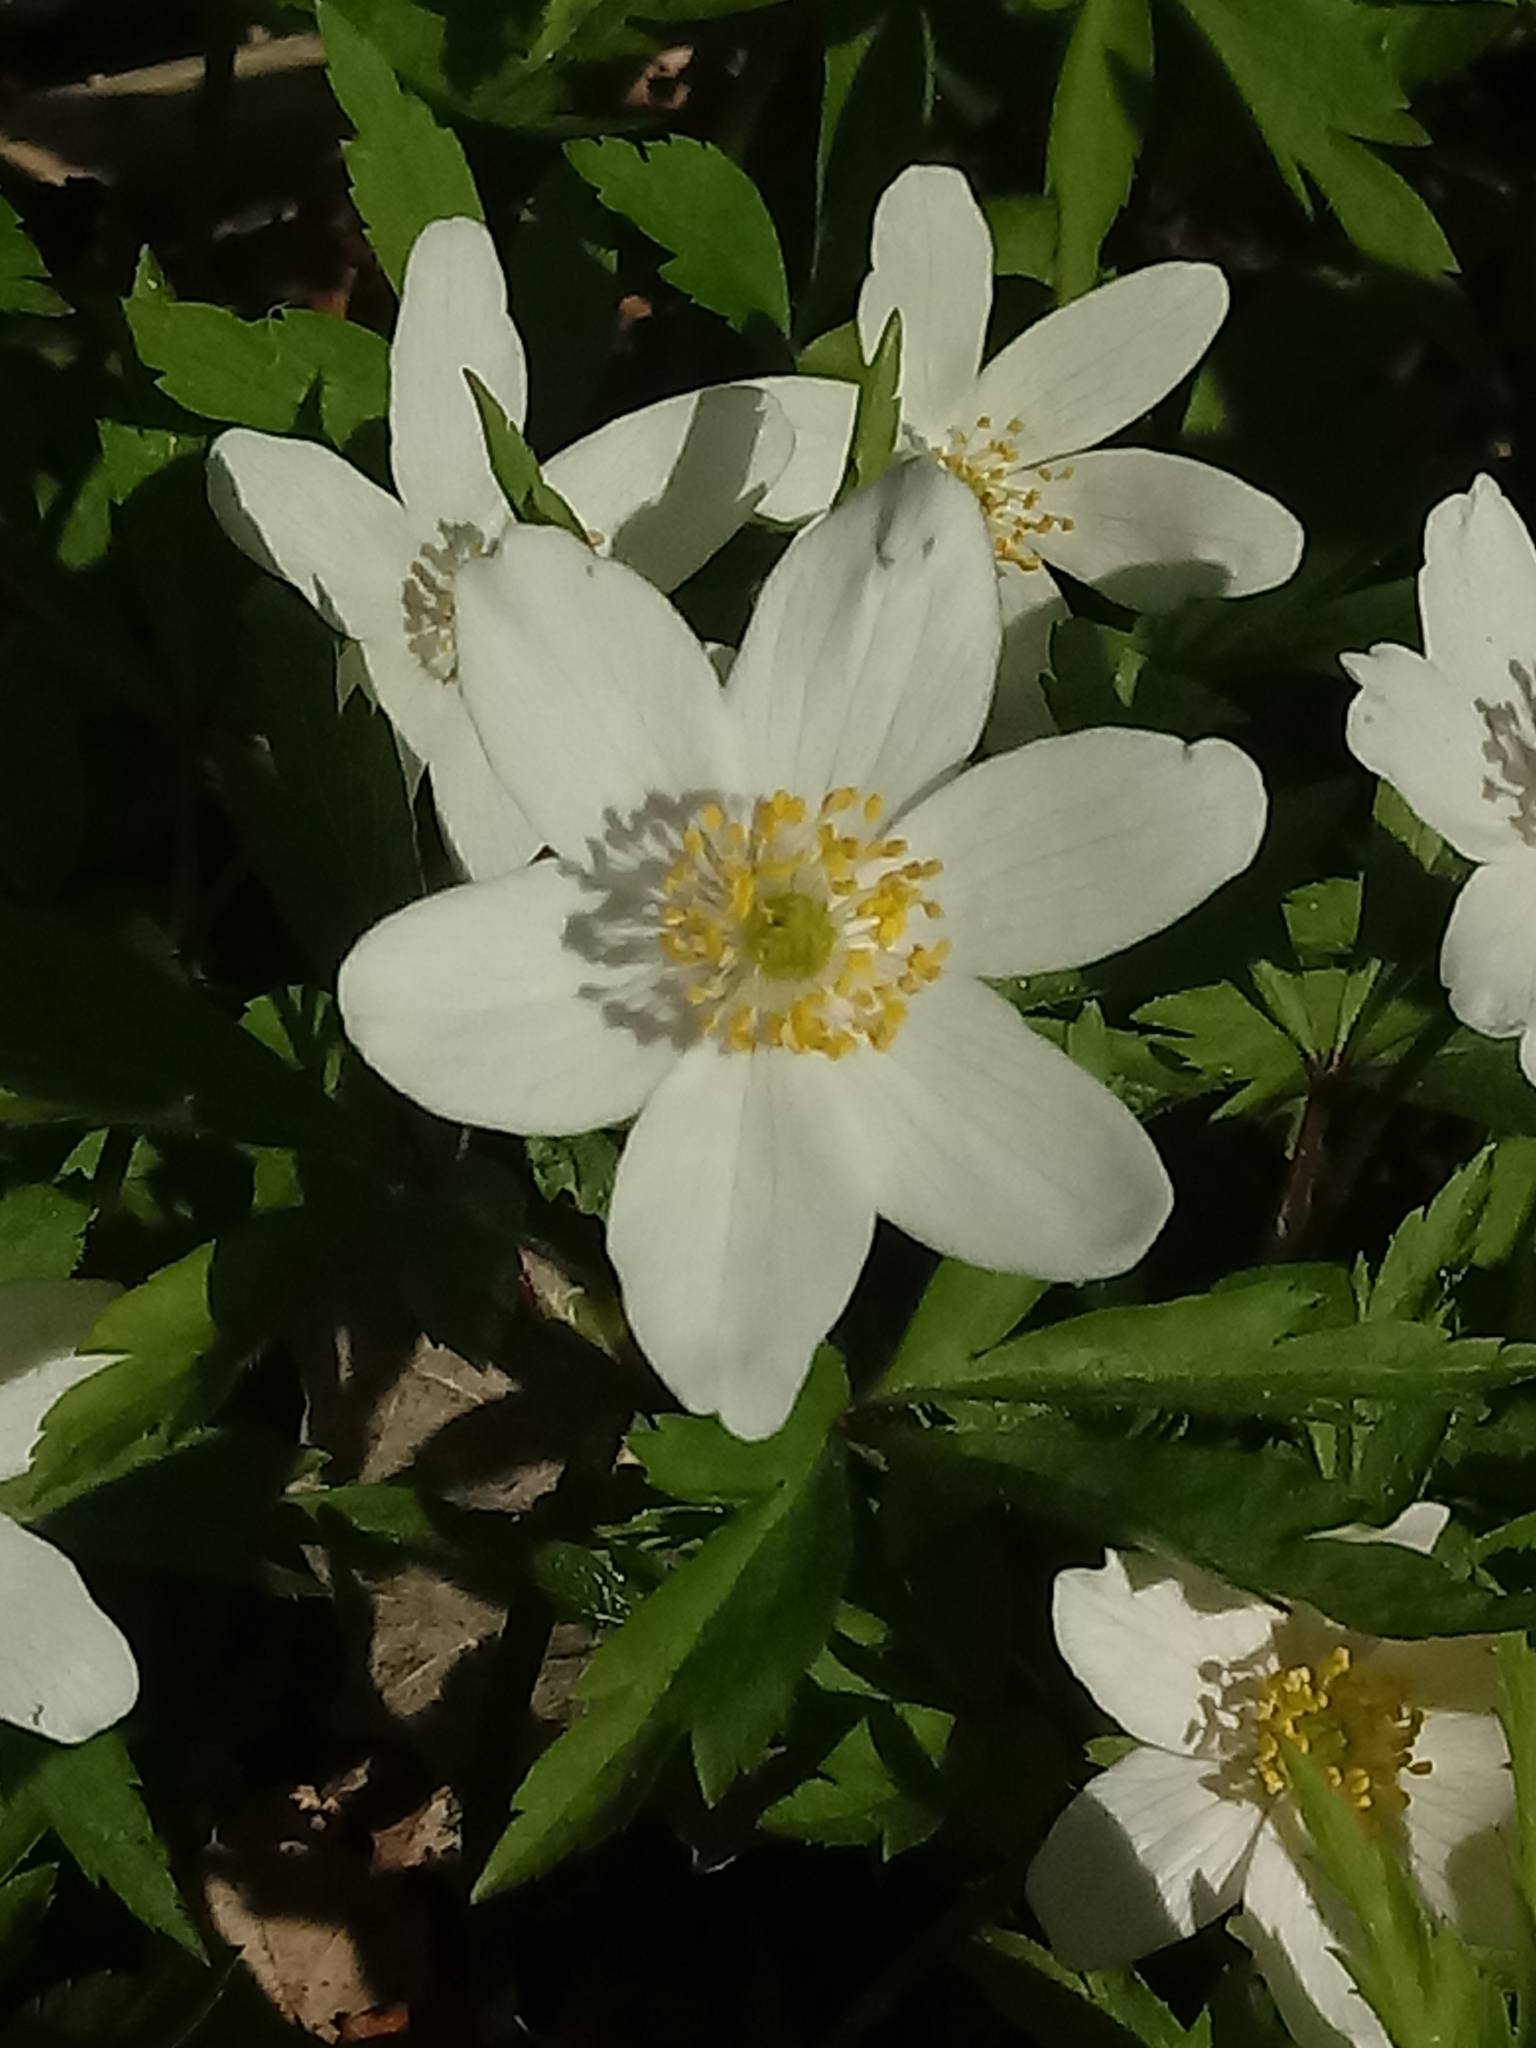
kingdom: Plantae
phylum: Tracheophyta
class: Magnoliopsida
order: Ranunculales
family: Ranunculaceae
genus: Anemone
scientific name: Anemone nemorosa
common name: Wood anemone
